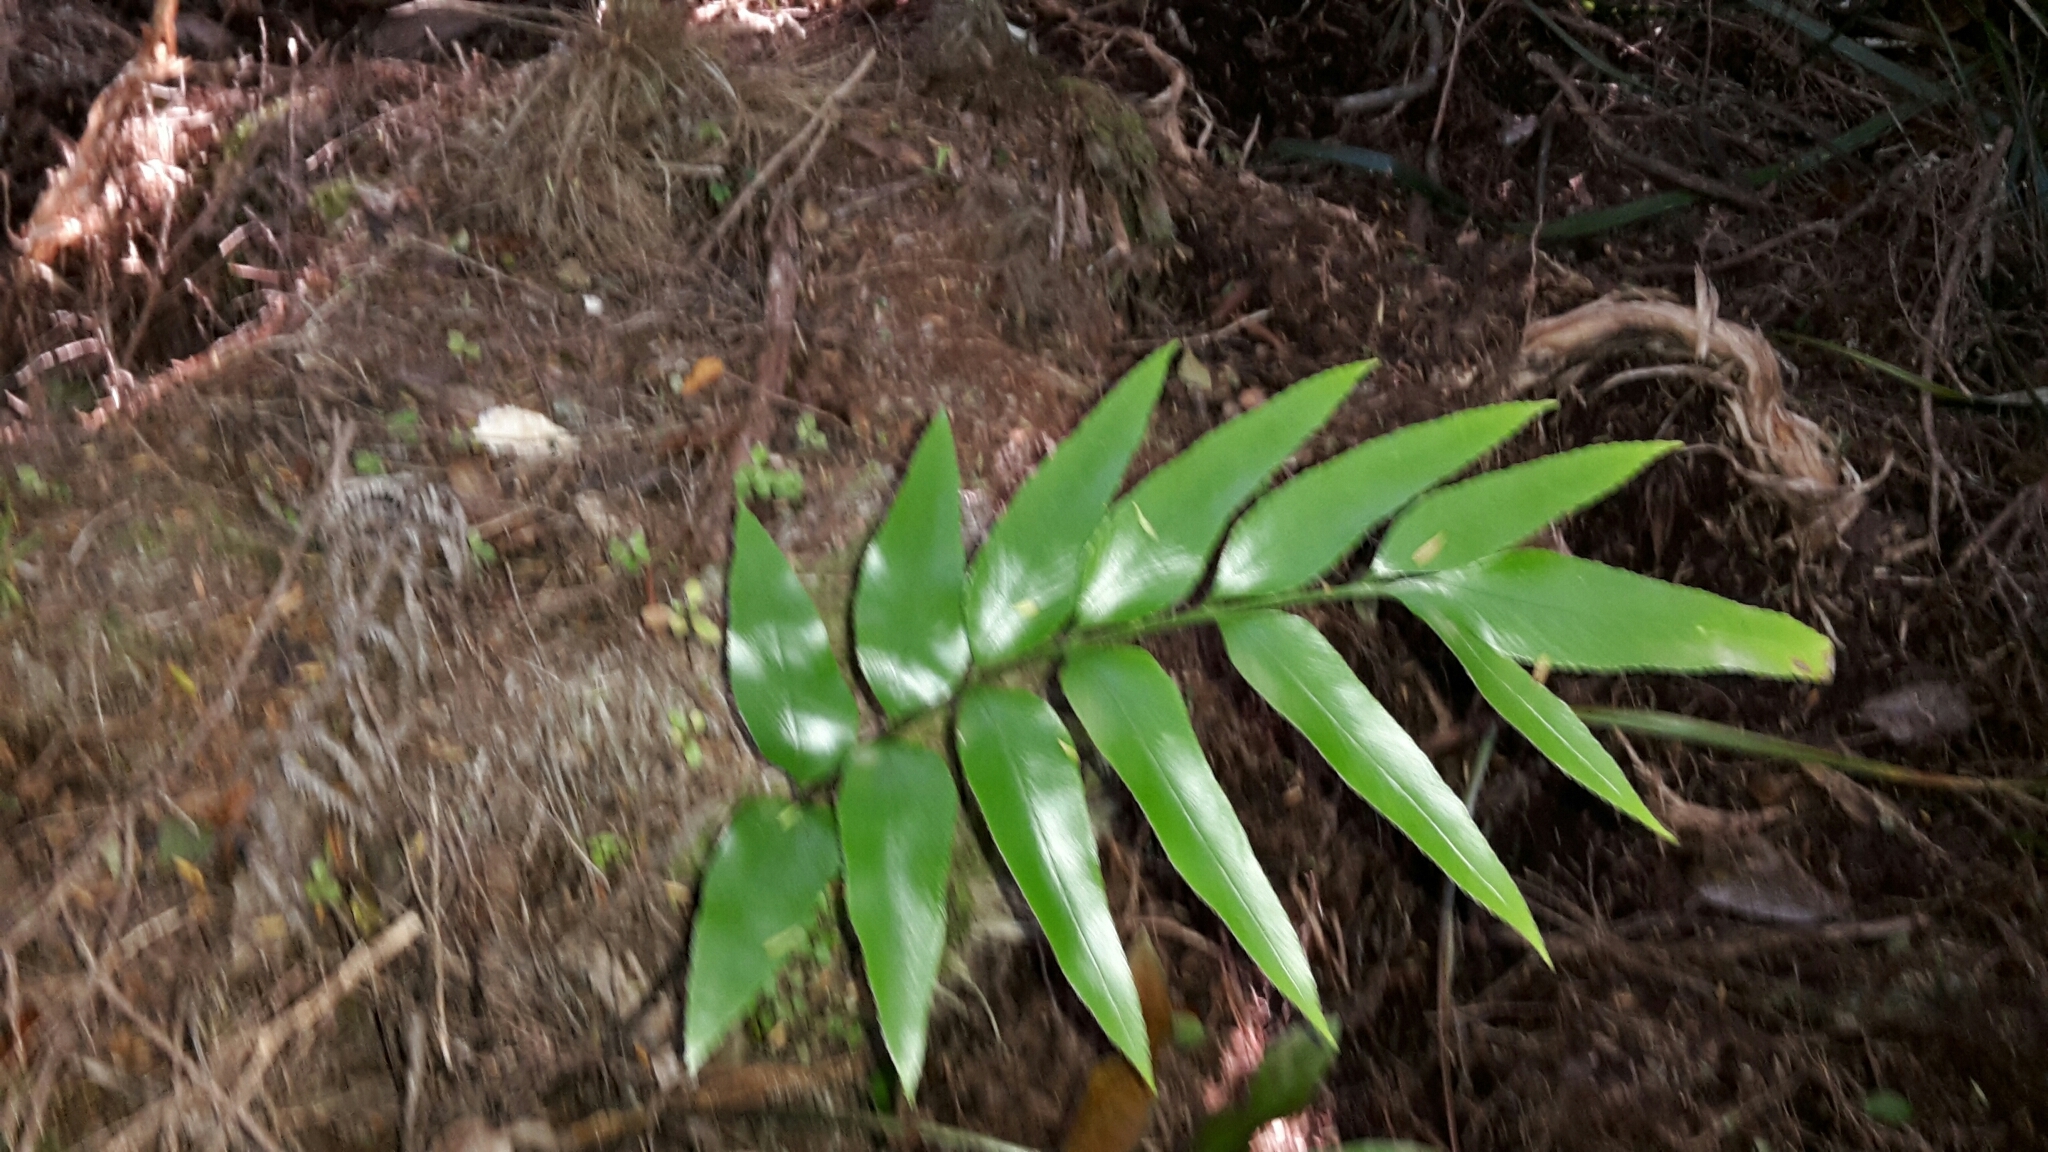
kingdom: Plantae
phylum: Tracheophyta
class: Polypodiopsida
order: Polypodiales
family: Aspleniaceae
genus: Asplenium
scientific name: Asplenium oblongifolium
